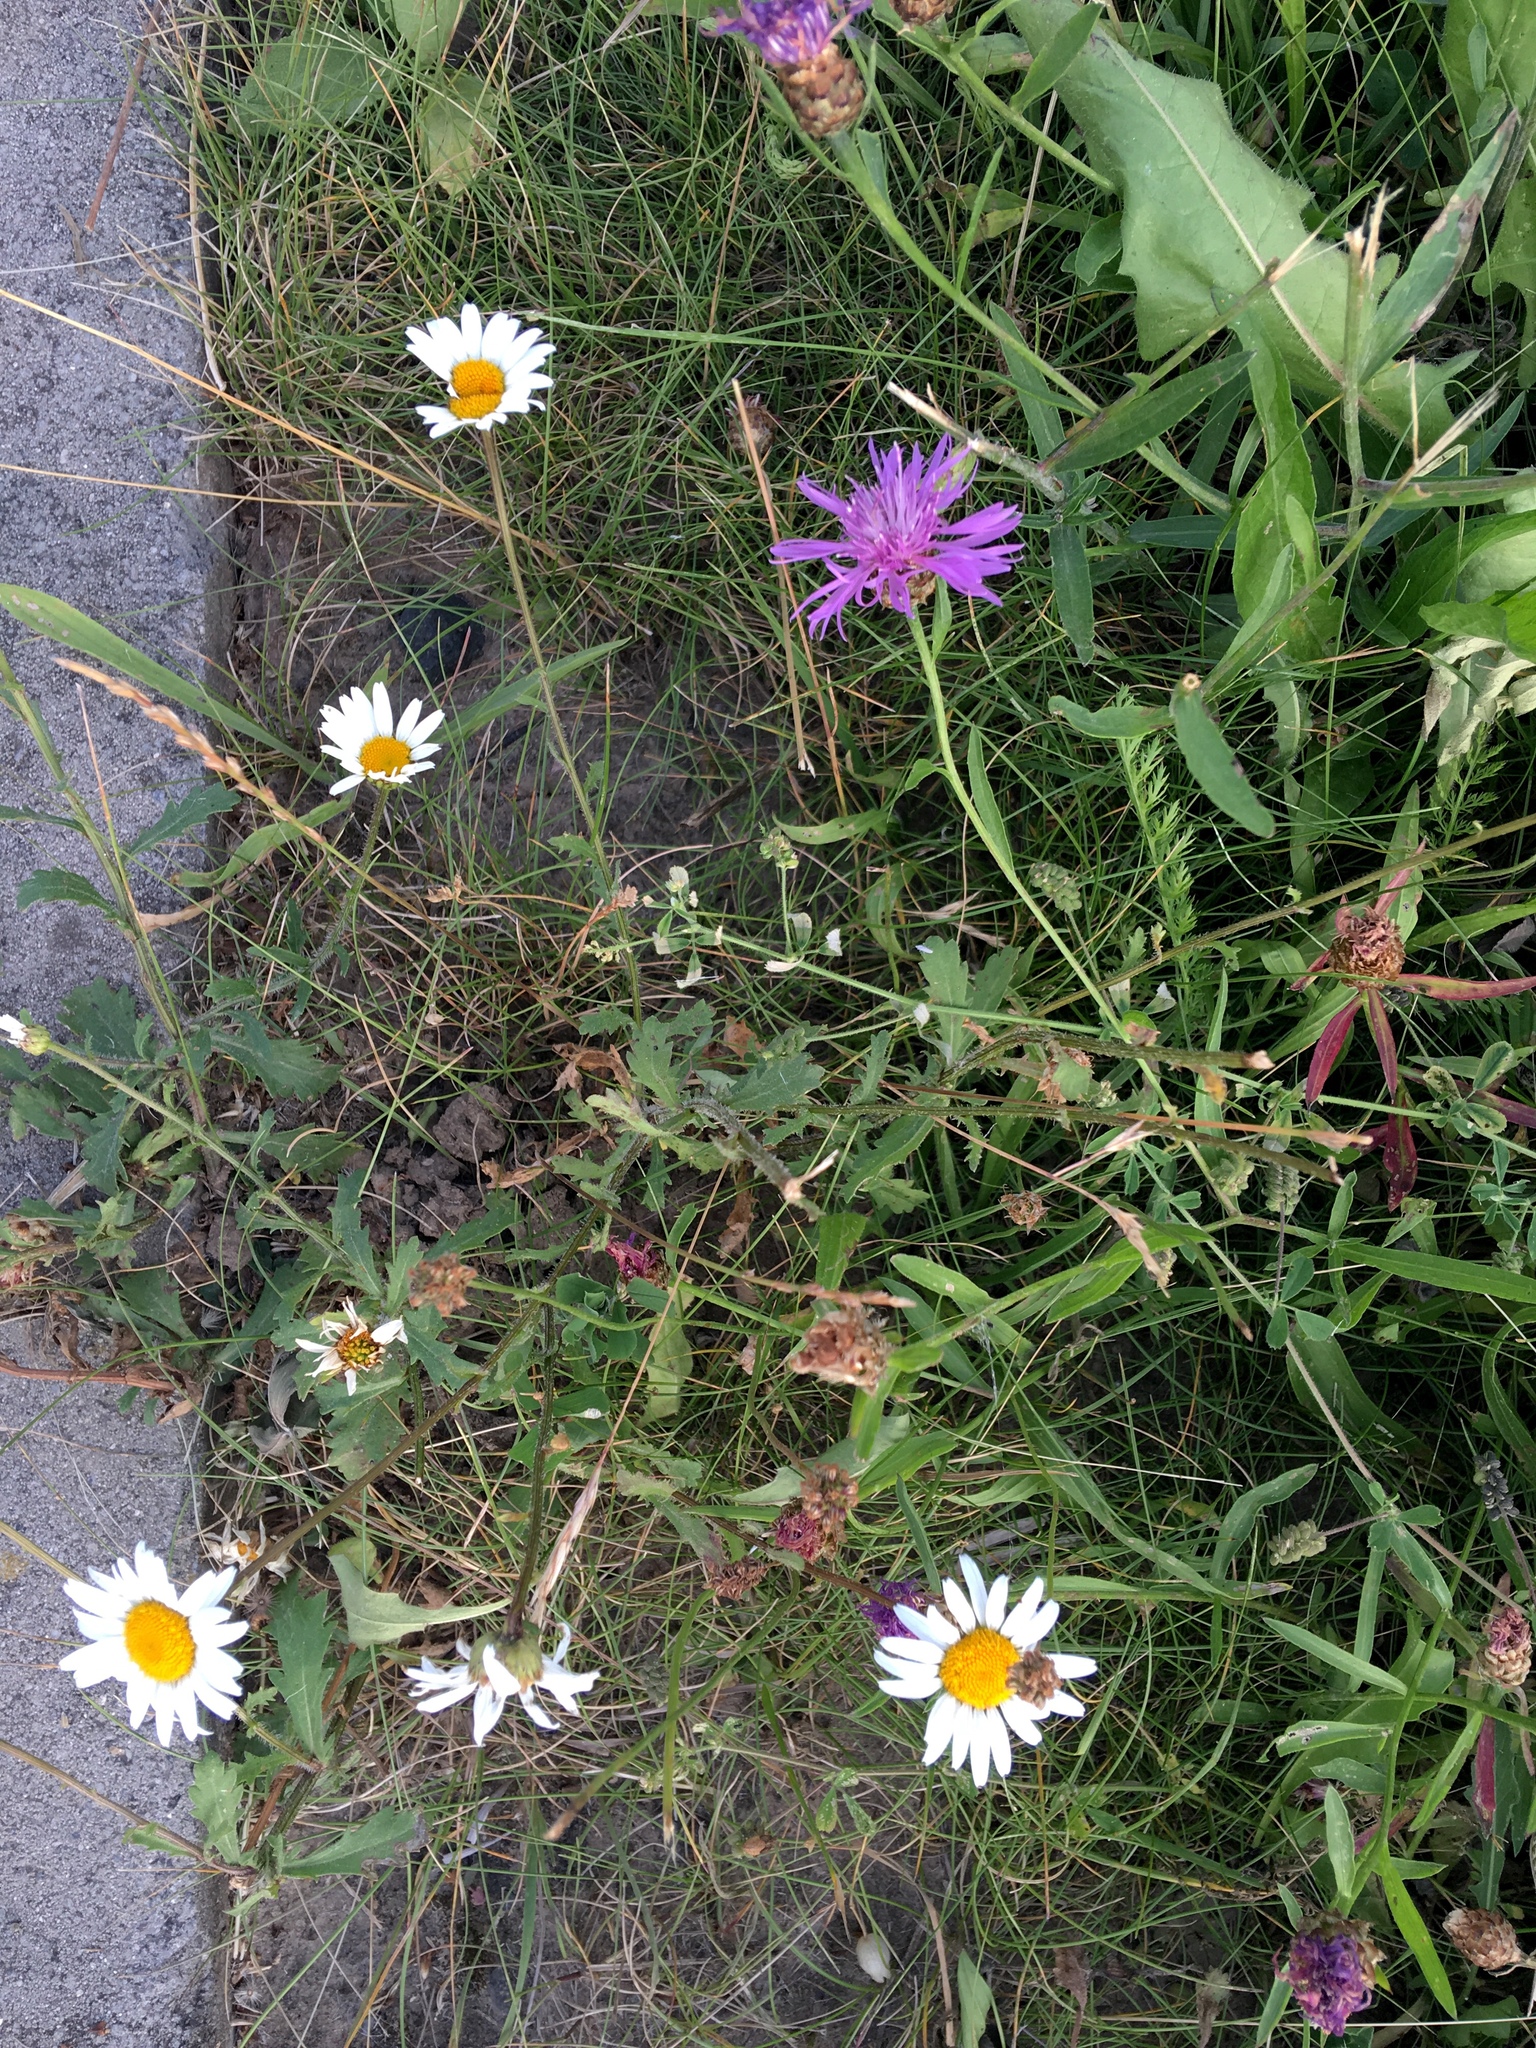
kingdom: Plantae
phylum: Tracheophyta
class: Magnoliopsida
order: Asterales
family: Asteraceae
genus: Leucanthemum
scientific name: Leucanthemum vulgare
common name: Oxeye daisy
